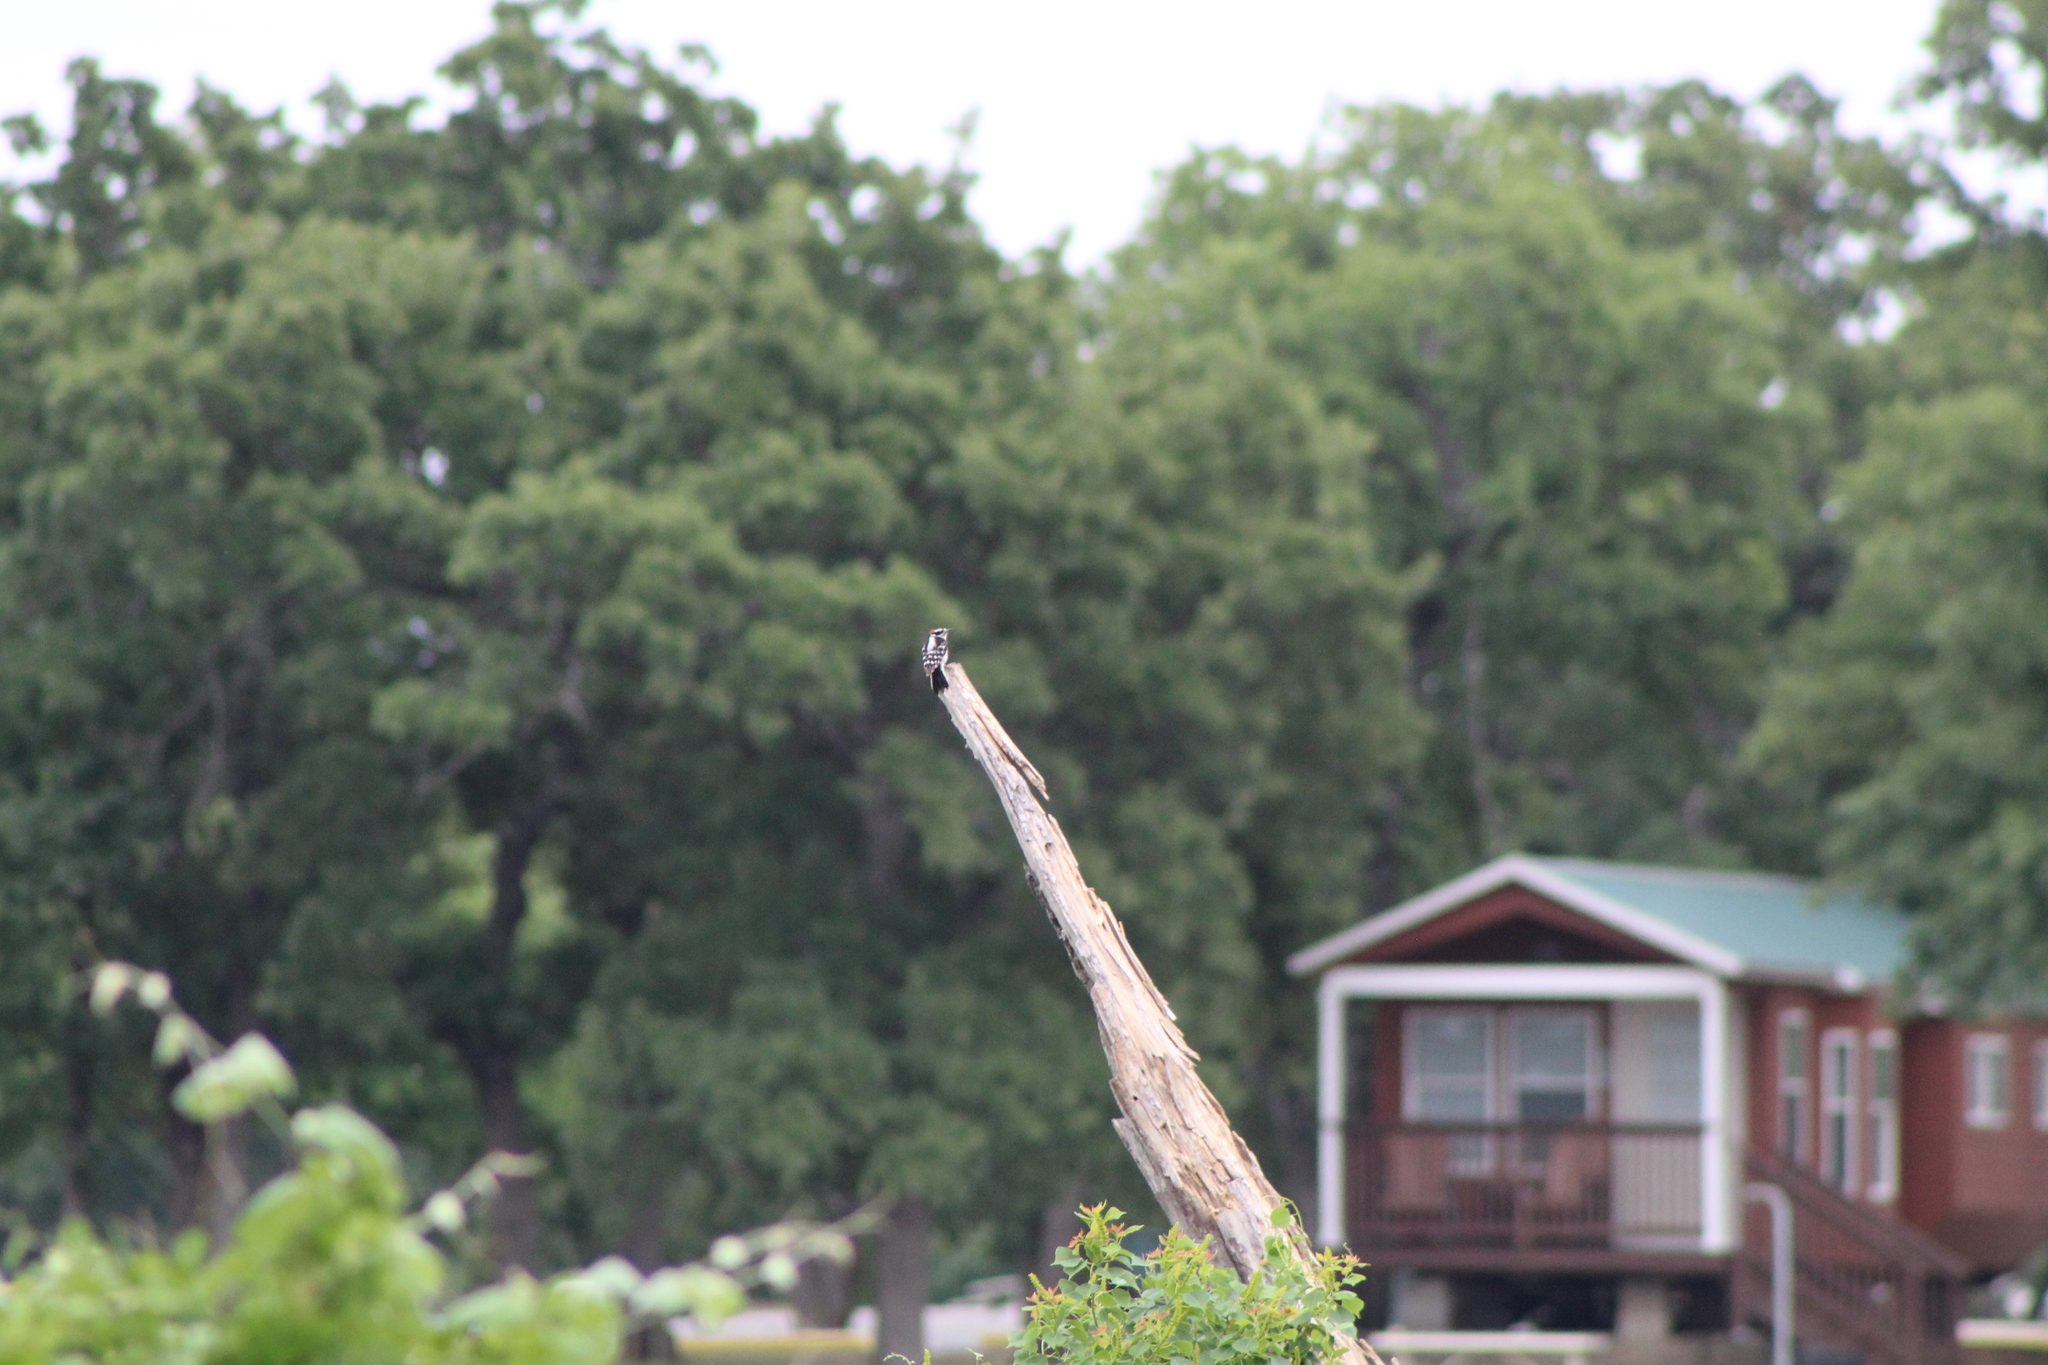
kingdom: Animalia
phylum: Chordata
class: Aves
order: Piciformes
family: Picidae
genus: Dryobates
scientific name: Dryobates pubescens
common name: Downy woodpecker
